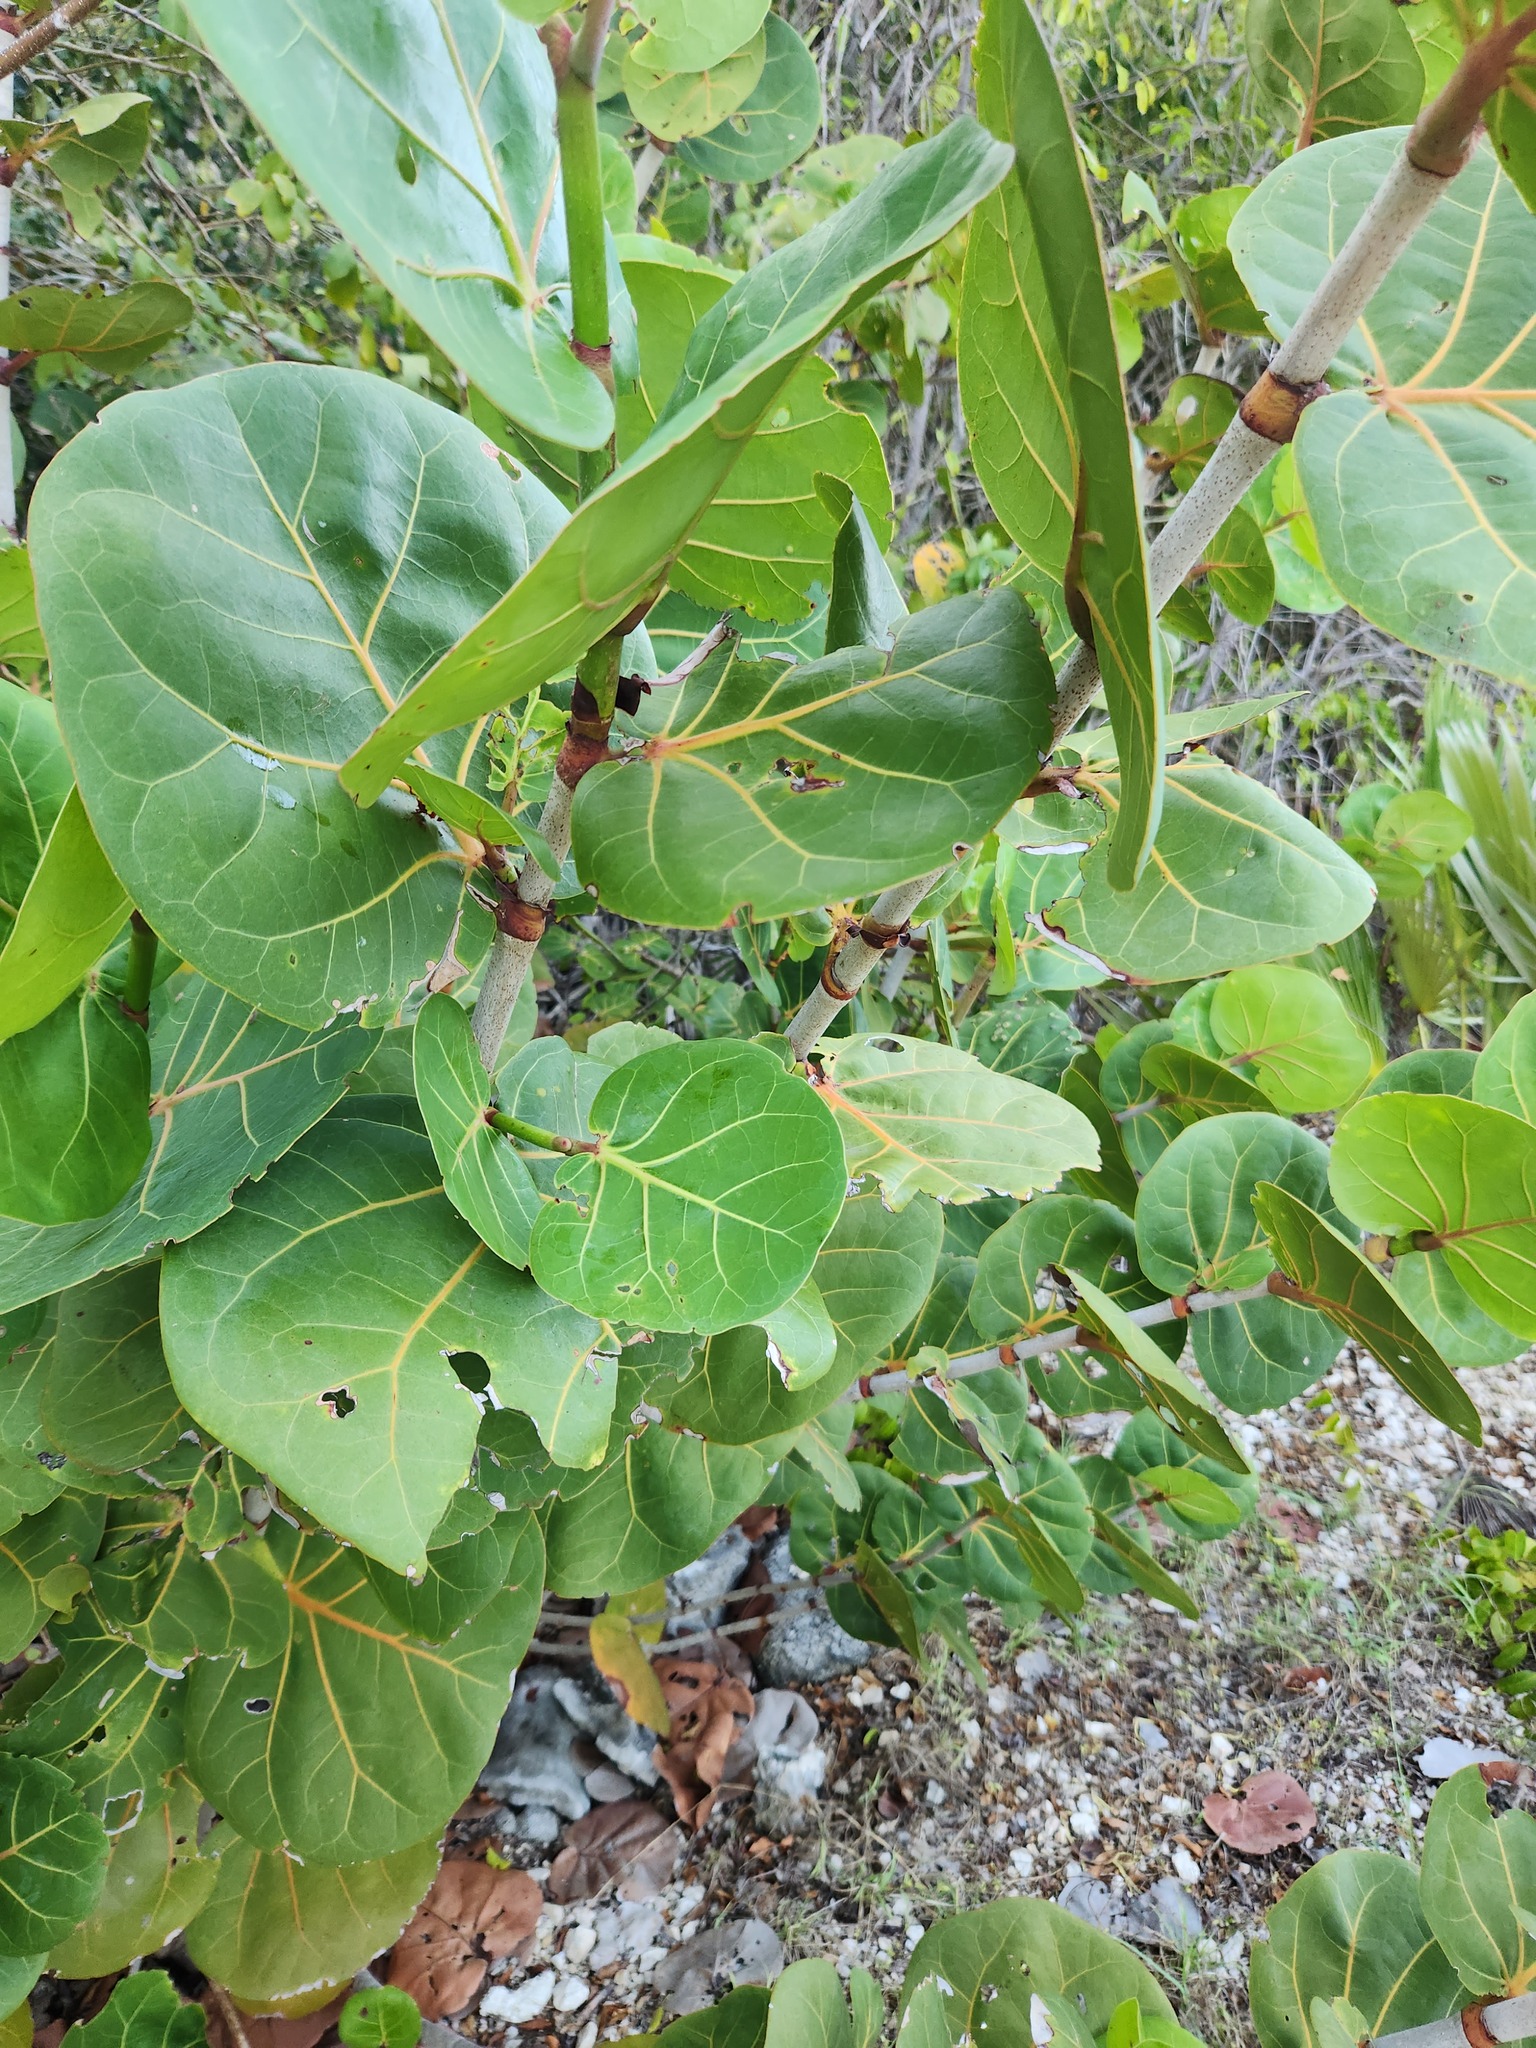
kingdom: Plantae
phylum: Tracheophyta
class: Magnoliopsida
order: Caryophyllales
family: Polygonaceae
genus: Coccoloba
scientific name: Coccoloba uvifera
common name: Seagrape
